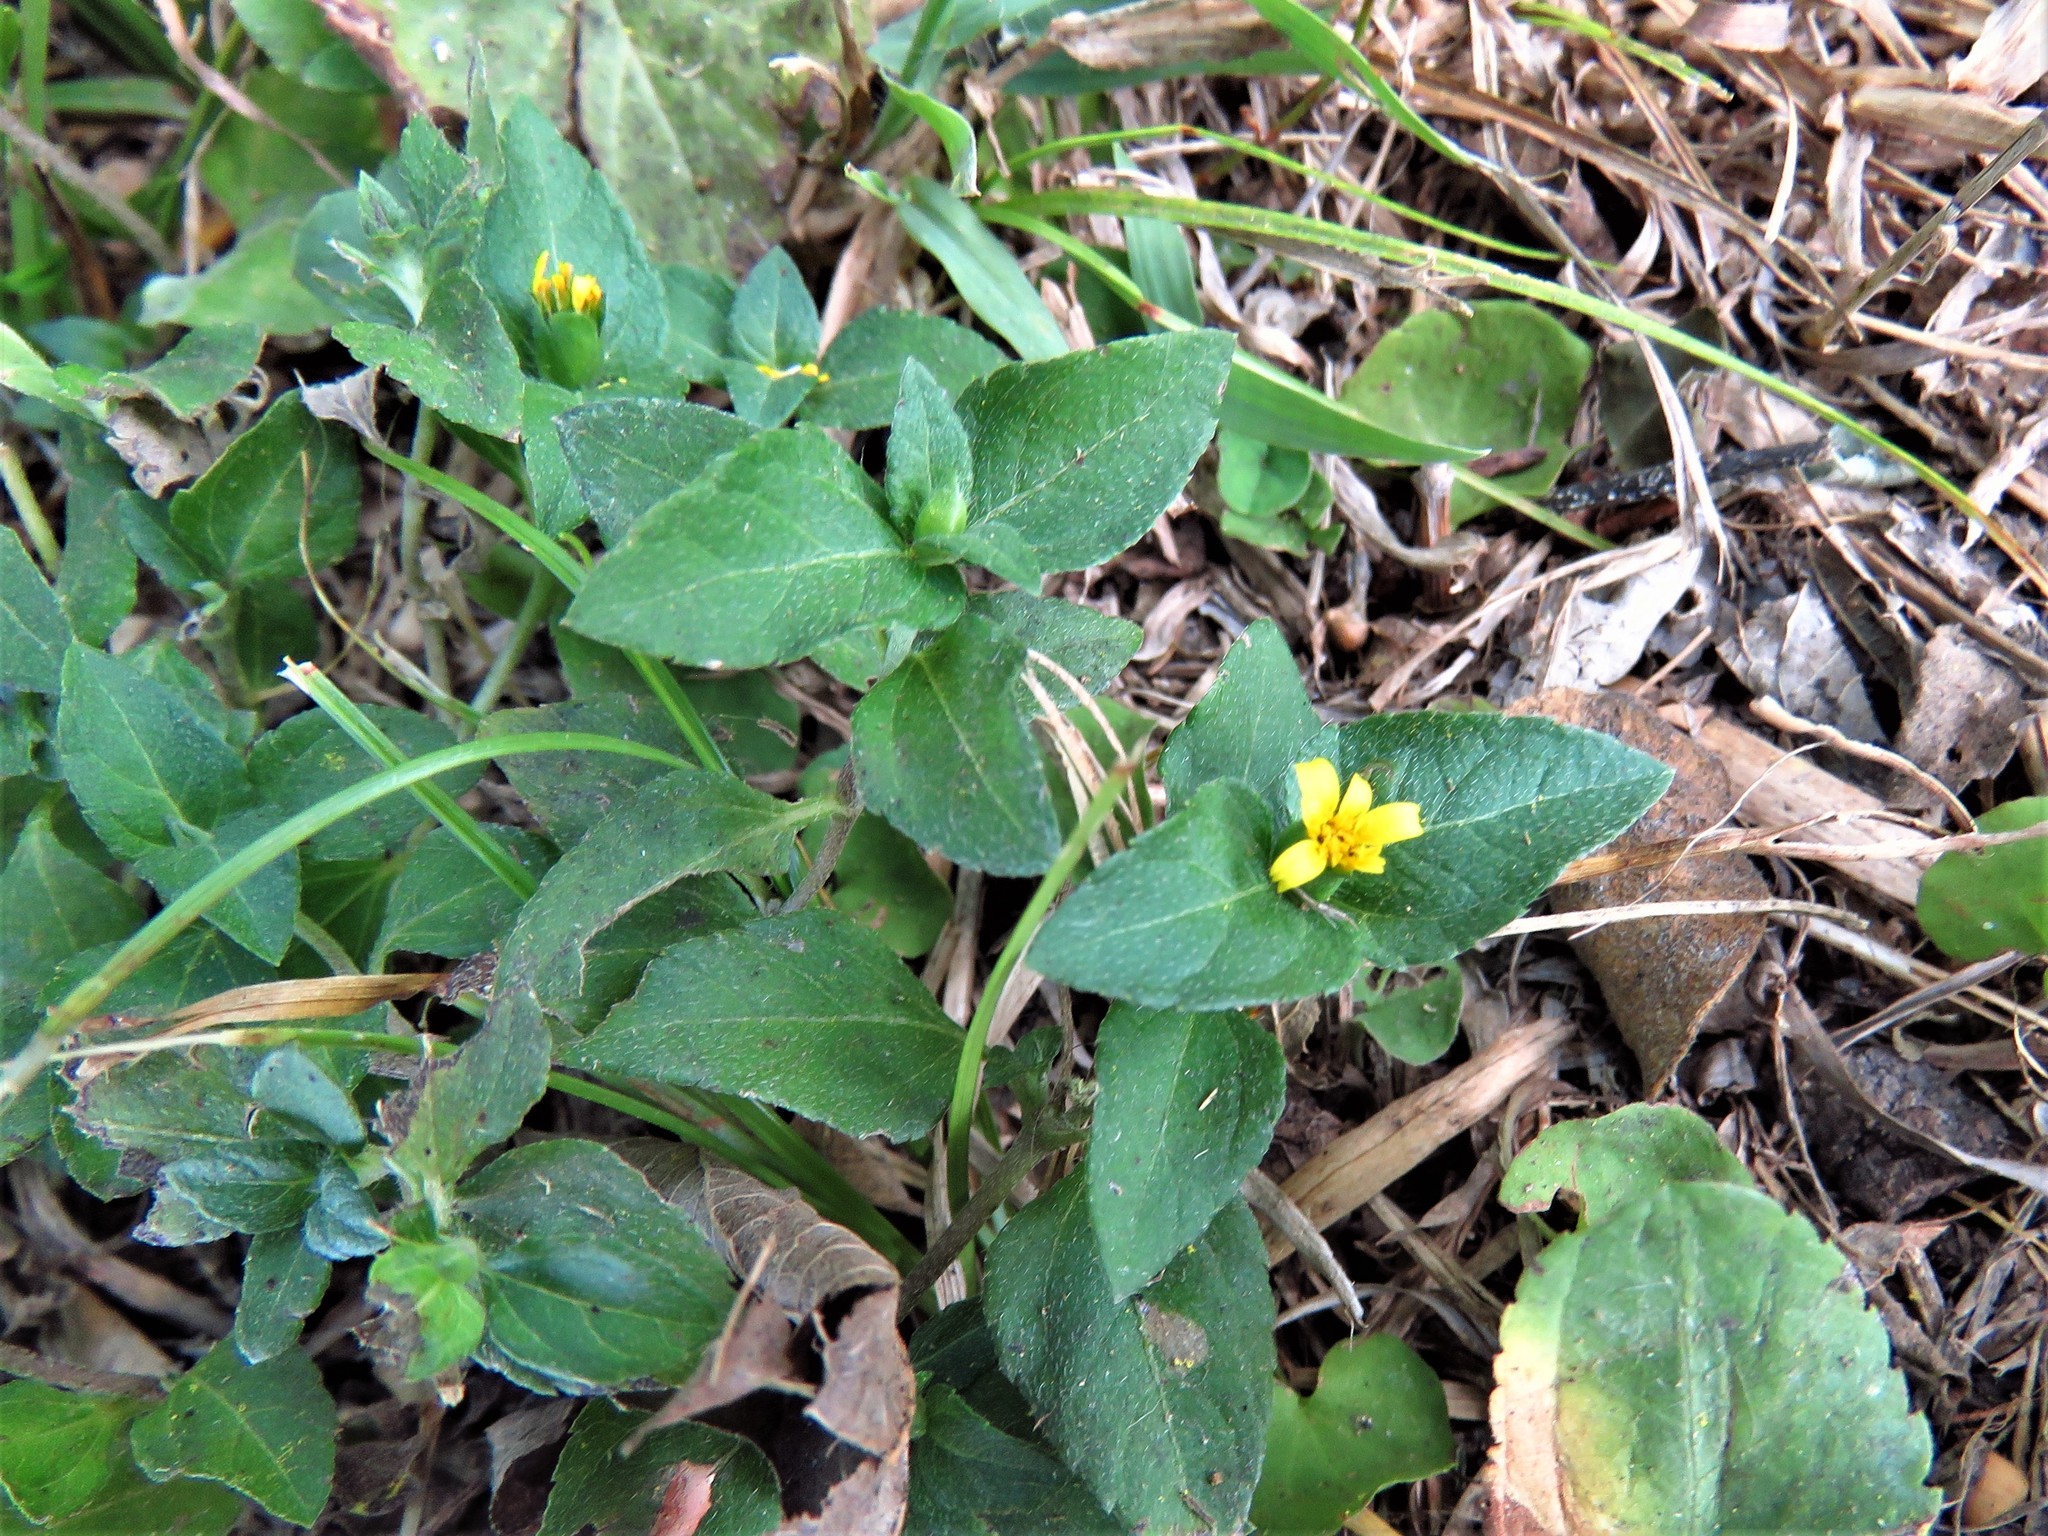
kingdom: Plantae
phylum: Tracheophyta
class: Magnoliopsida
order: Asterales
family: Asteraceae
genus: Calyptocarpus
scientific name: Calyptocarpus vialis
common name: Straggler daisy
